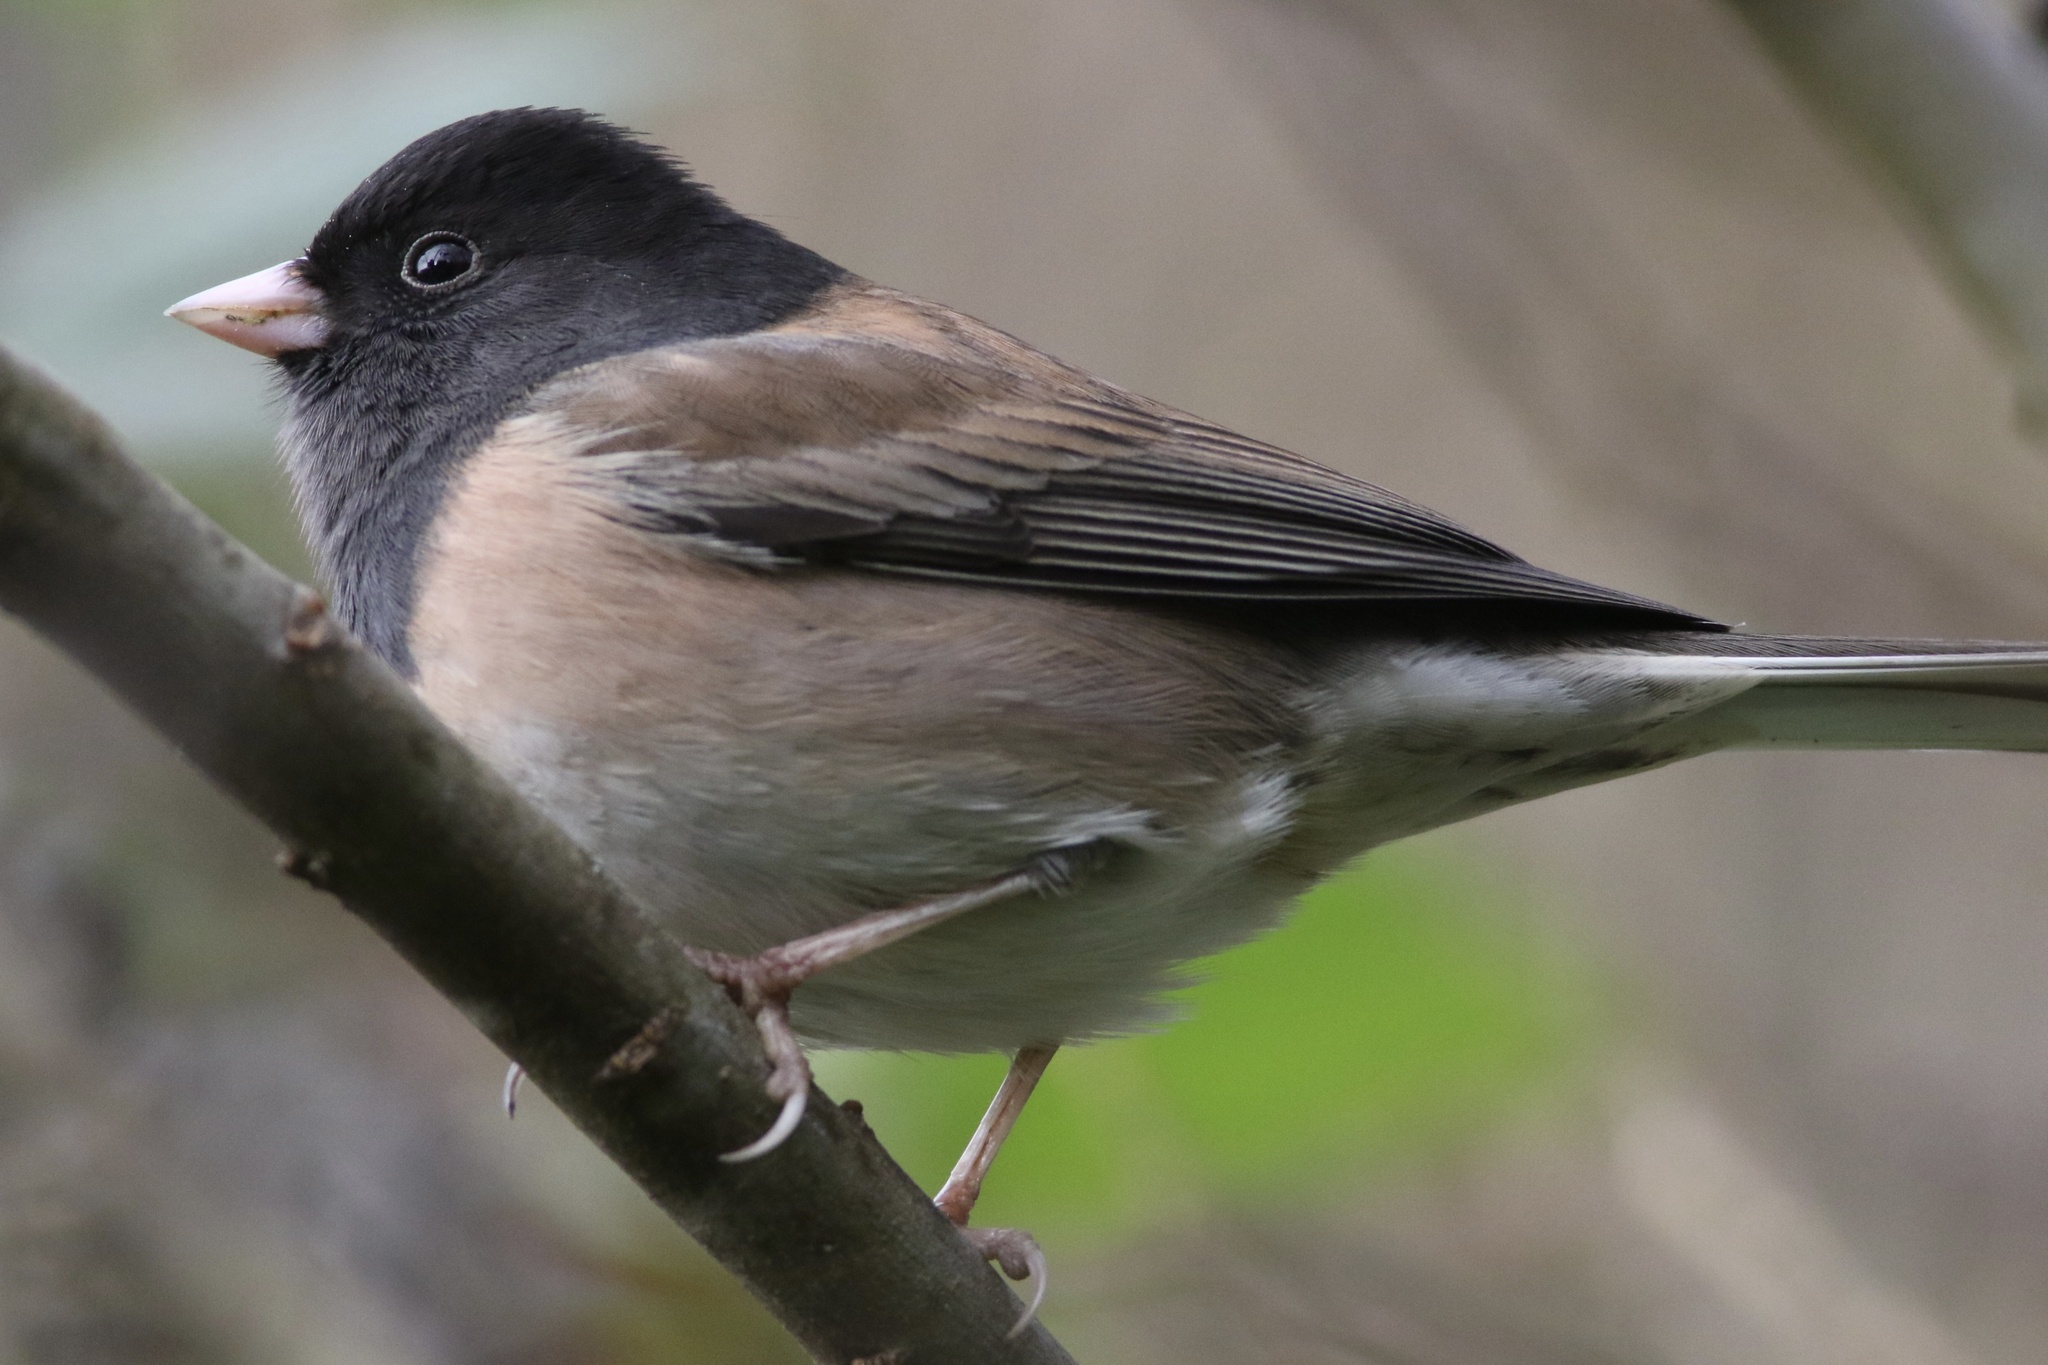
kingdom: Animalia
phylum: Chordata
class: Aves
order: Passeriformes
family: Passerellidae
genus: Junco
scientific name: Junco hyemalis
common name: Dark-eyed junco
